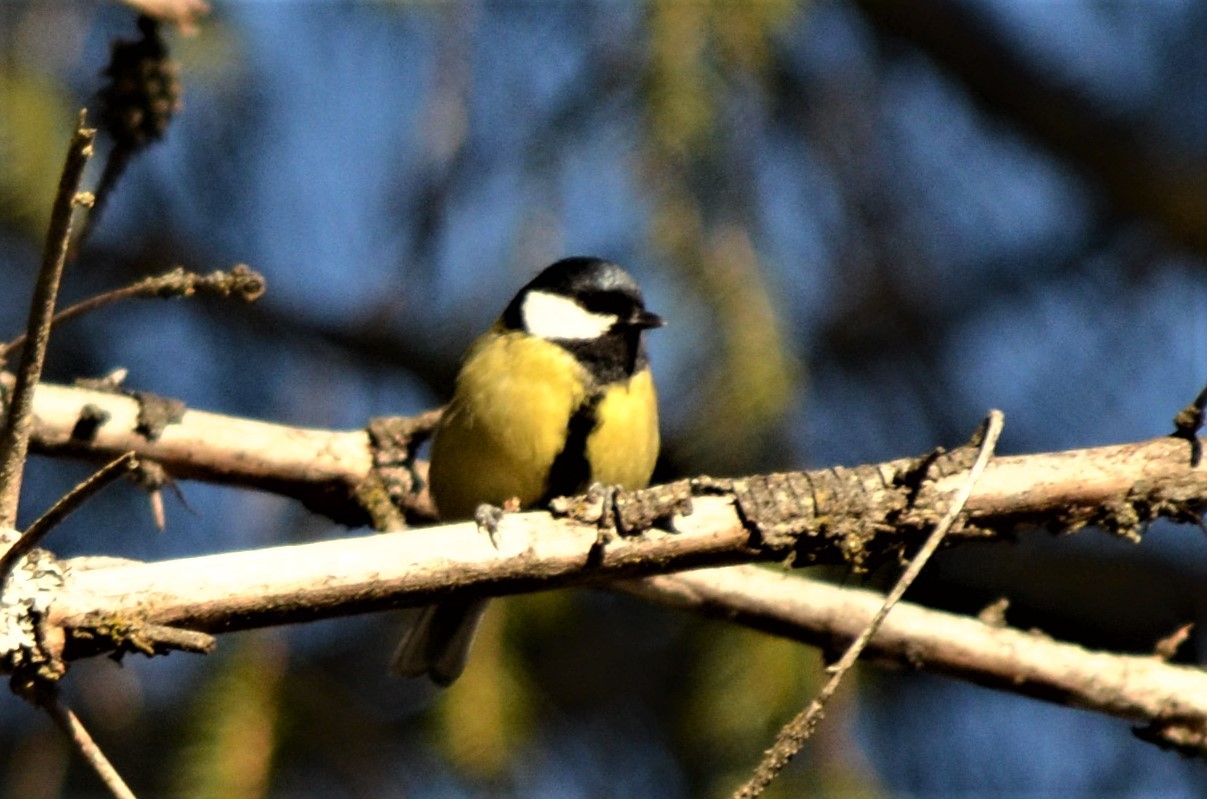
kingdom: Animalia
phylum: Chordata
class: Aves
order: Passeriformes
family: Paridae
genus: Parus
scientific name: Parus major
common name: Great tit
